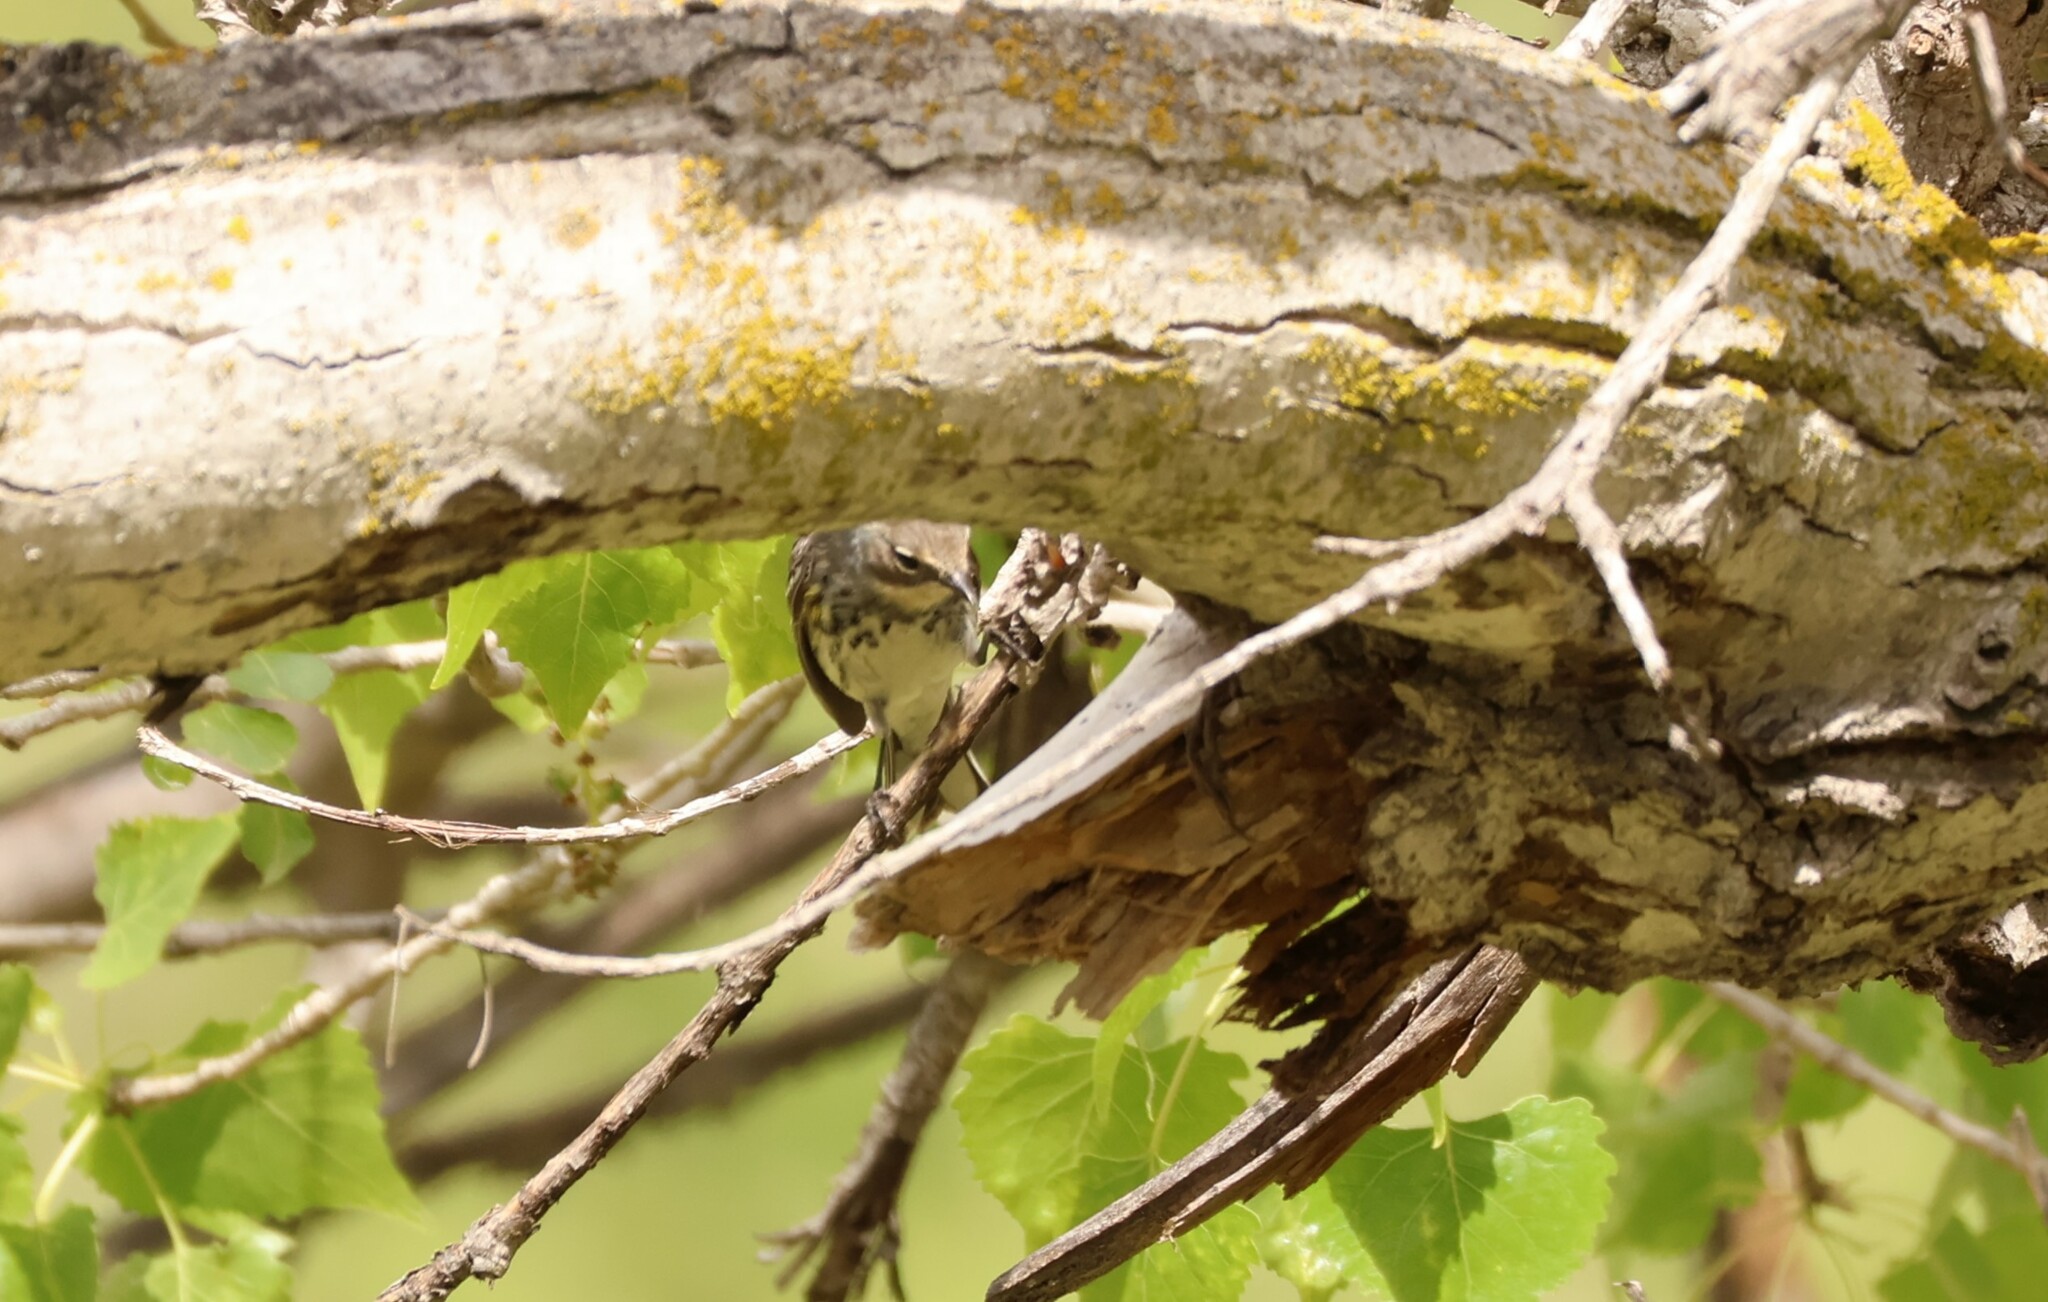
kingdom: Animalia
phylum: Chordata
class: Aves
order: Passeriformes
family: Parulidae
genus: Setophaga
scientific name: Setophaga coronata
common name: Myrtle warbler
